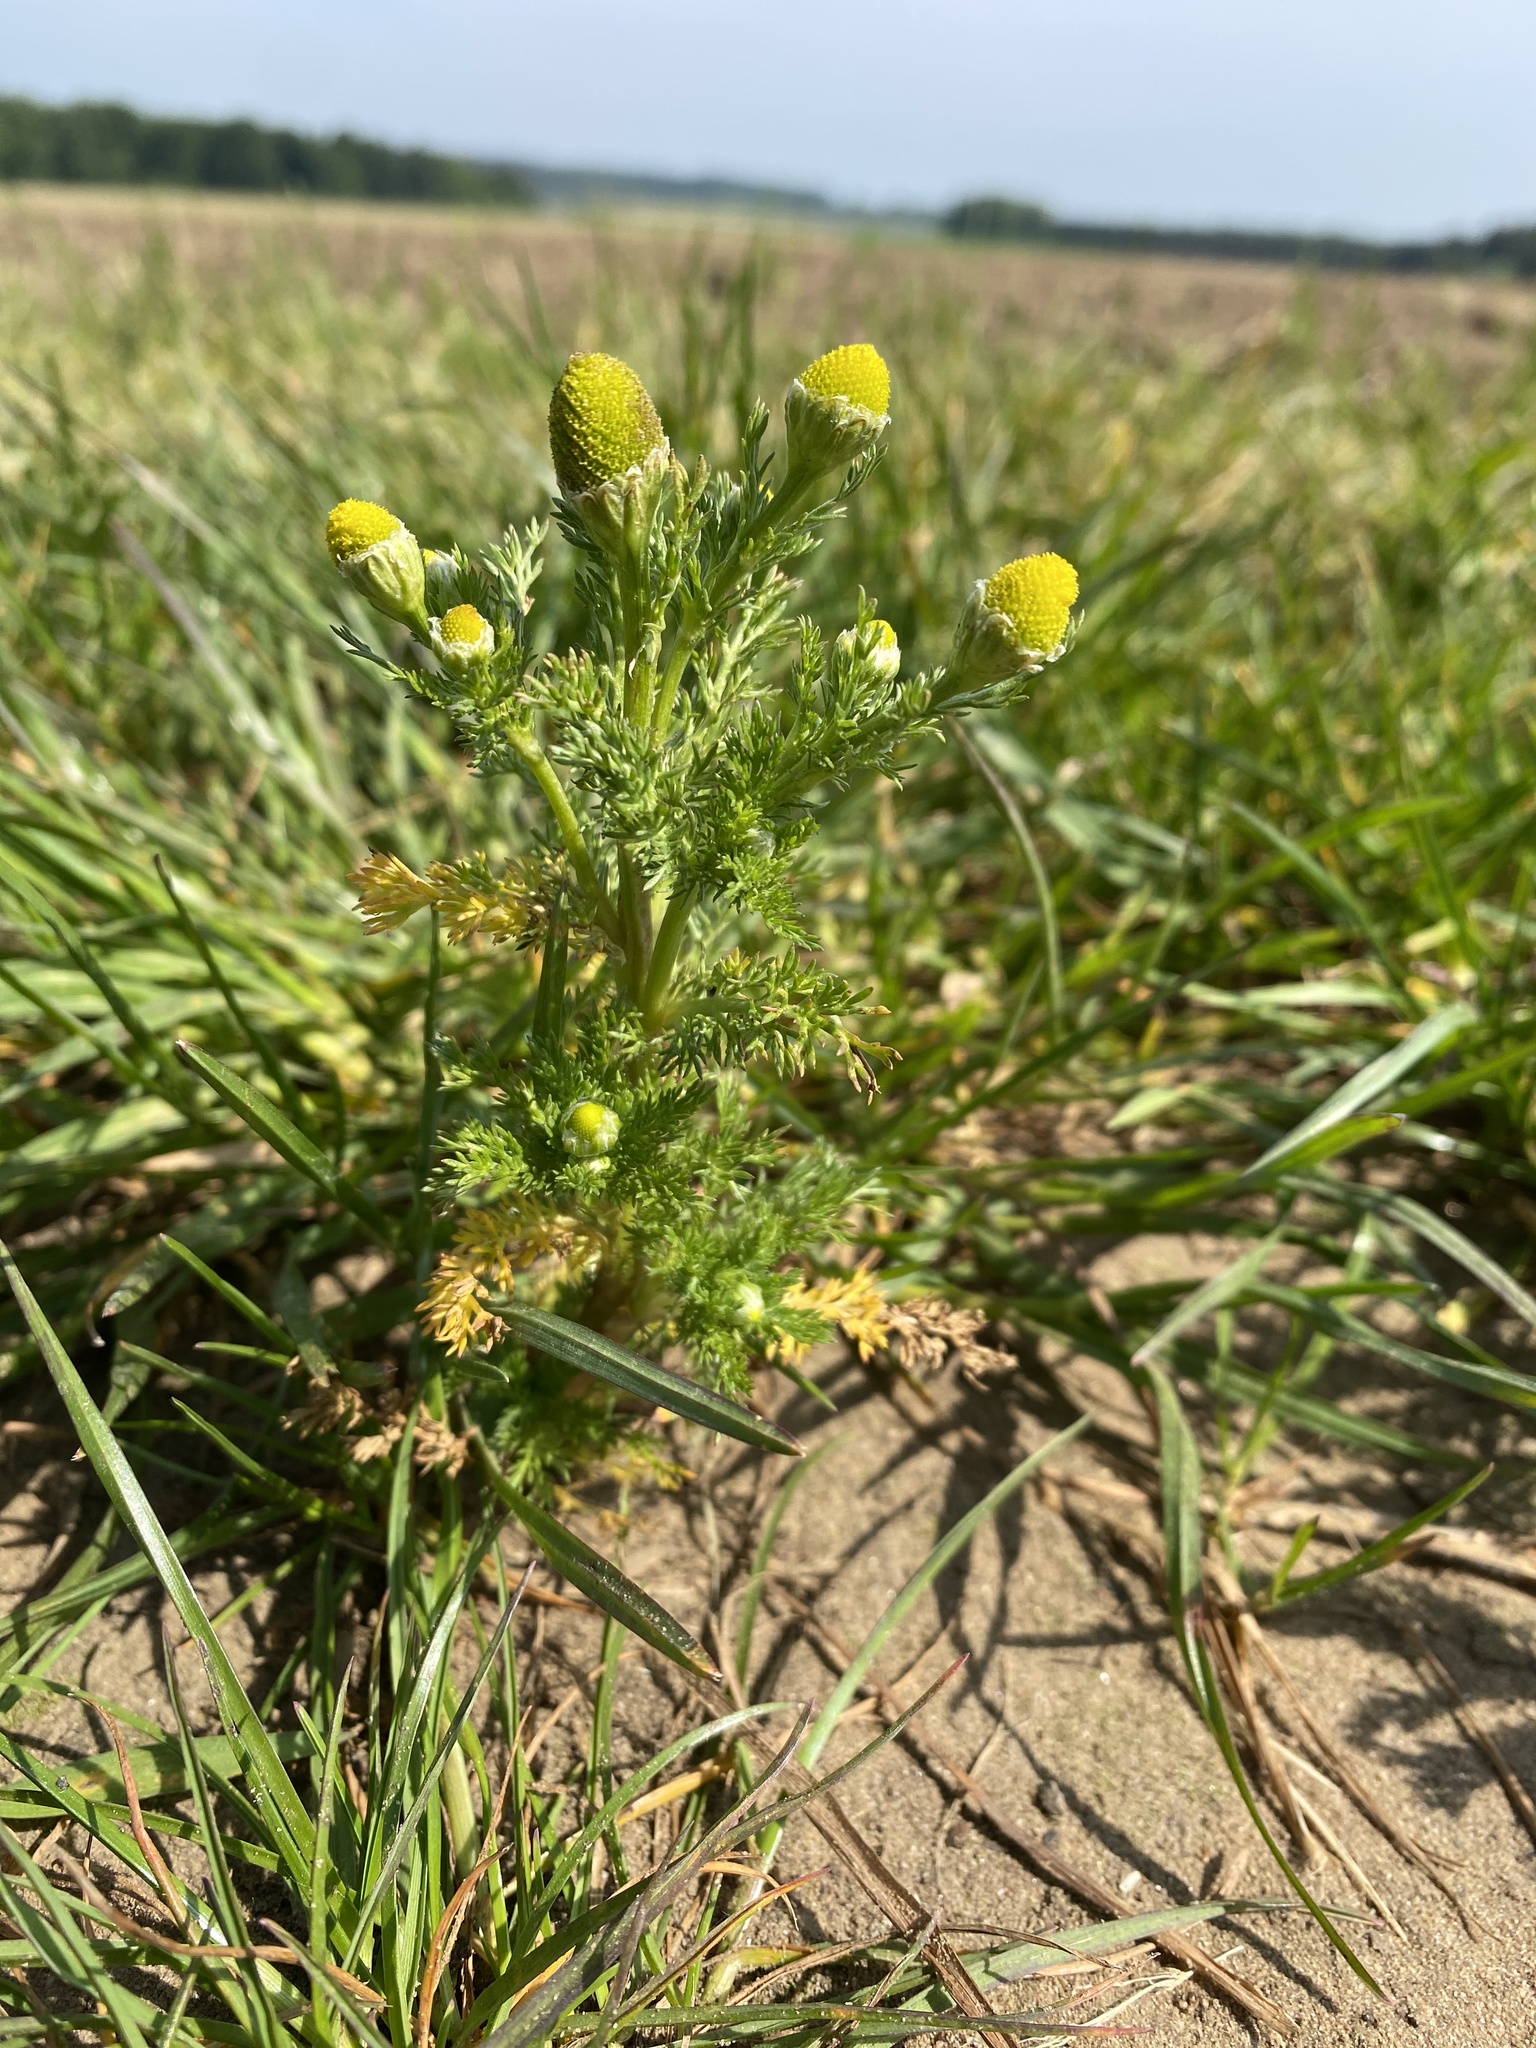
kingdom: Plantae
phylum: Tracheophyta
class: Magnoliopsida
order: Asterales
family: Asteraceae
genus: Matricaria
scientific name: Matricaria discoidea
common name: Disc mayweed
